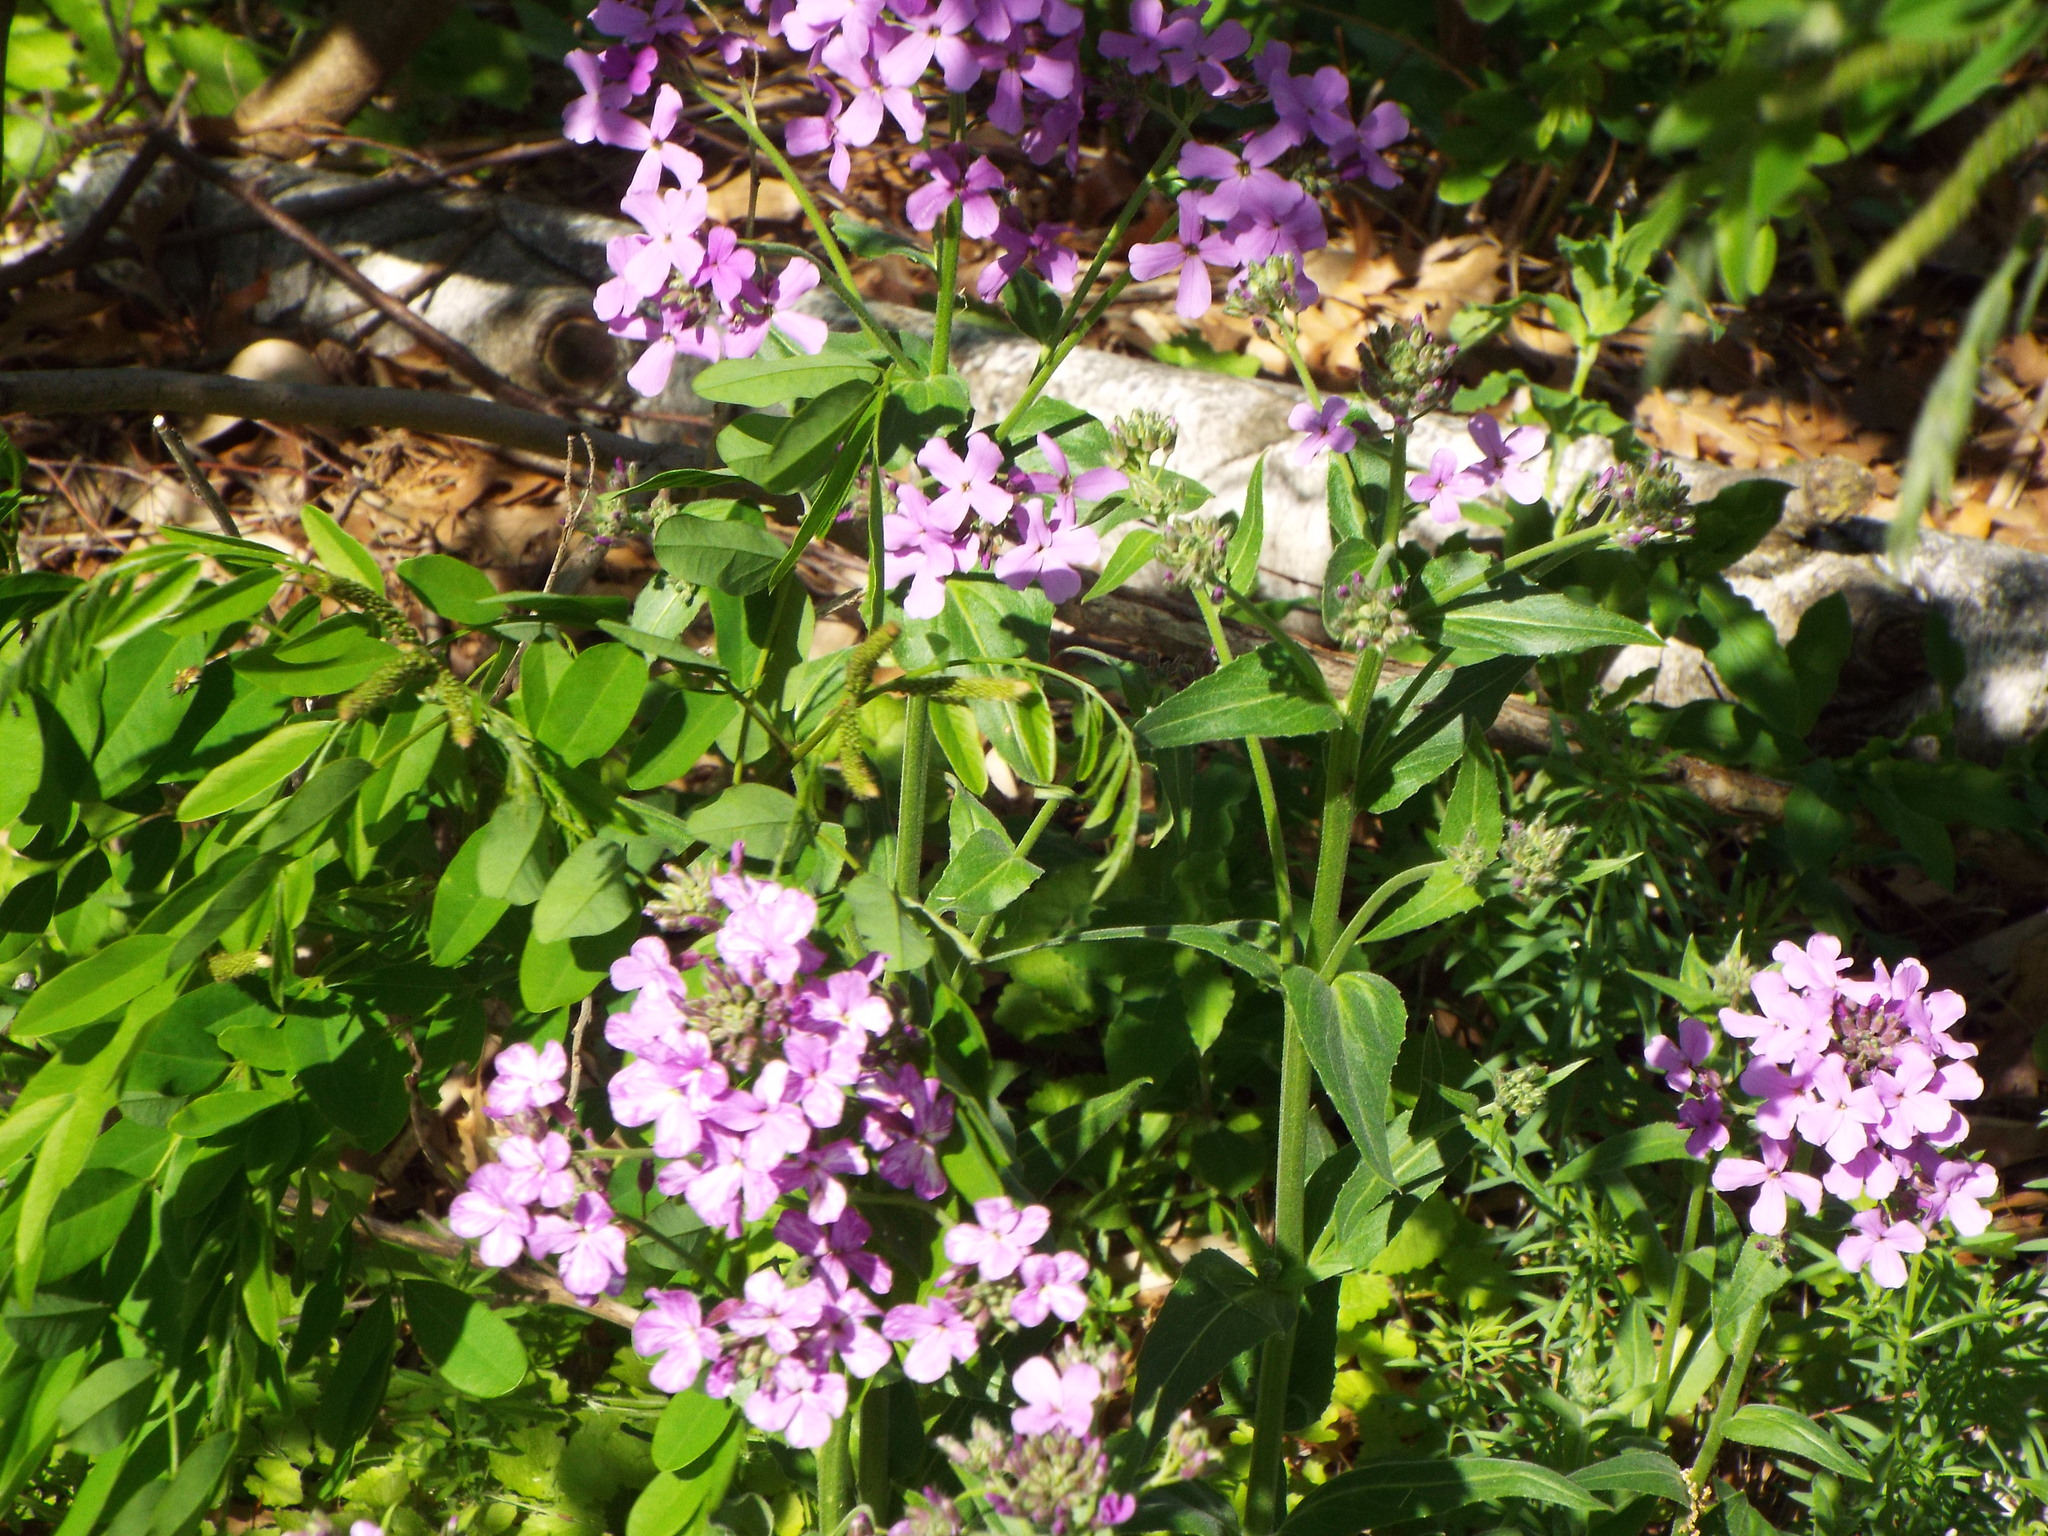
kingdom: Plantae
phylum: Tracheophyta
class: Magnoliopsida
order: Brassicales
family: Brassicaceae
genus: Hesperis
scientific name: Hesperis matronalis
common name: Dame's-violet
